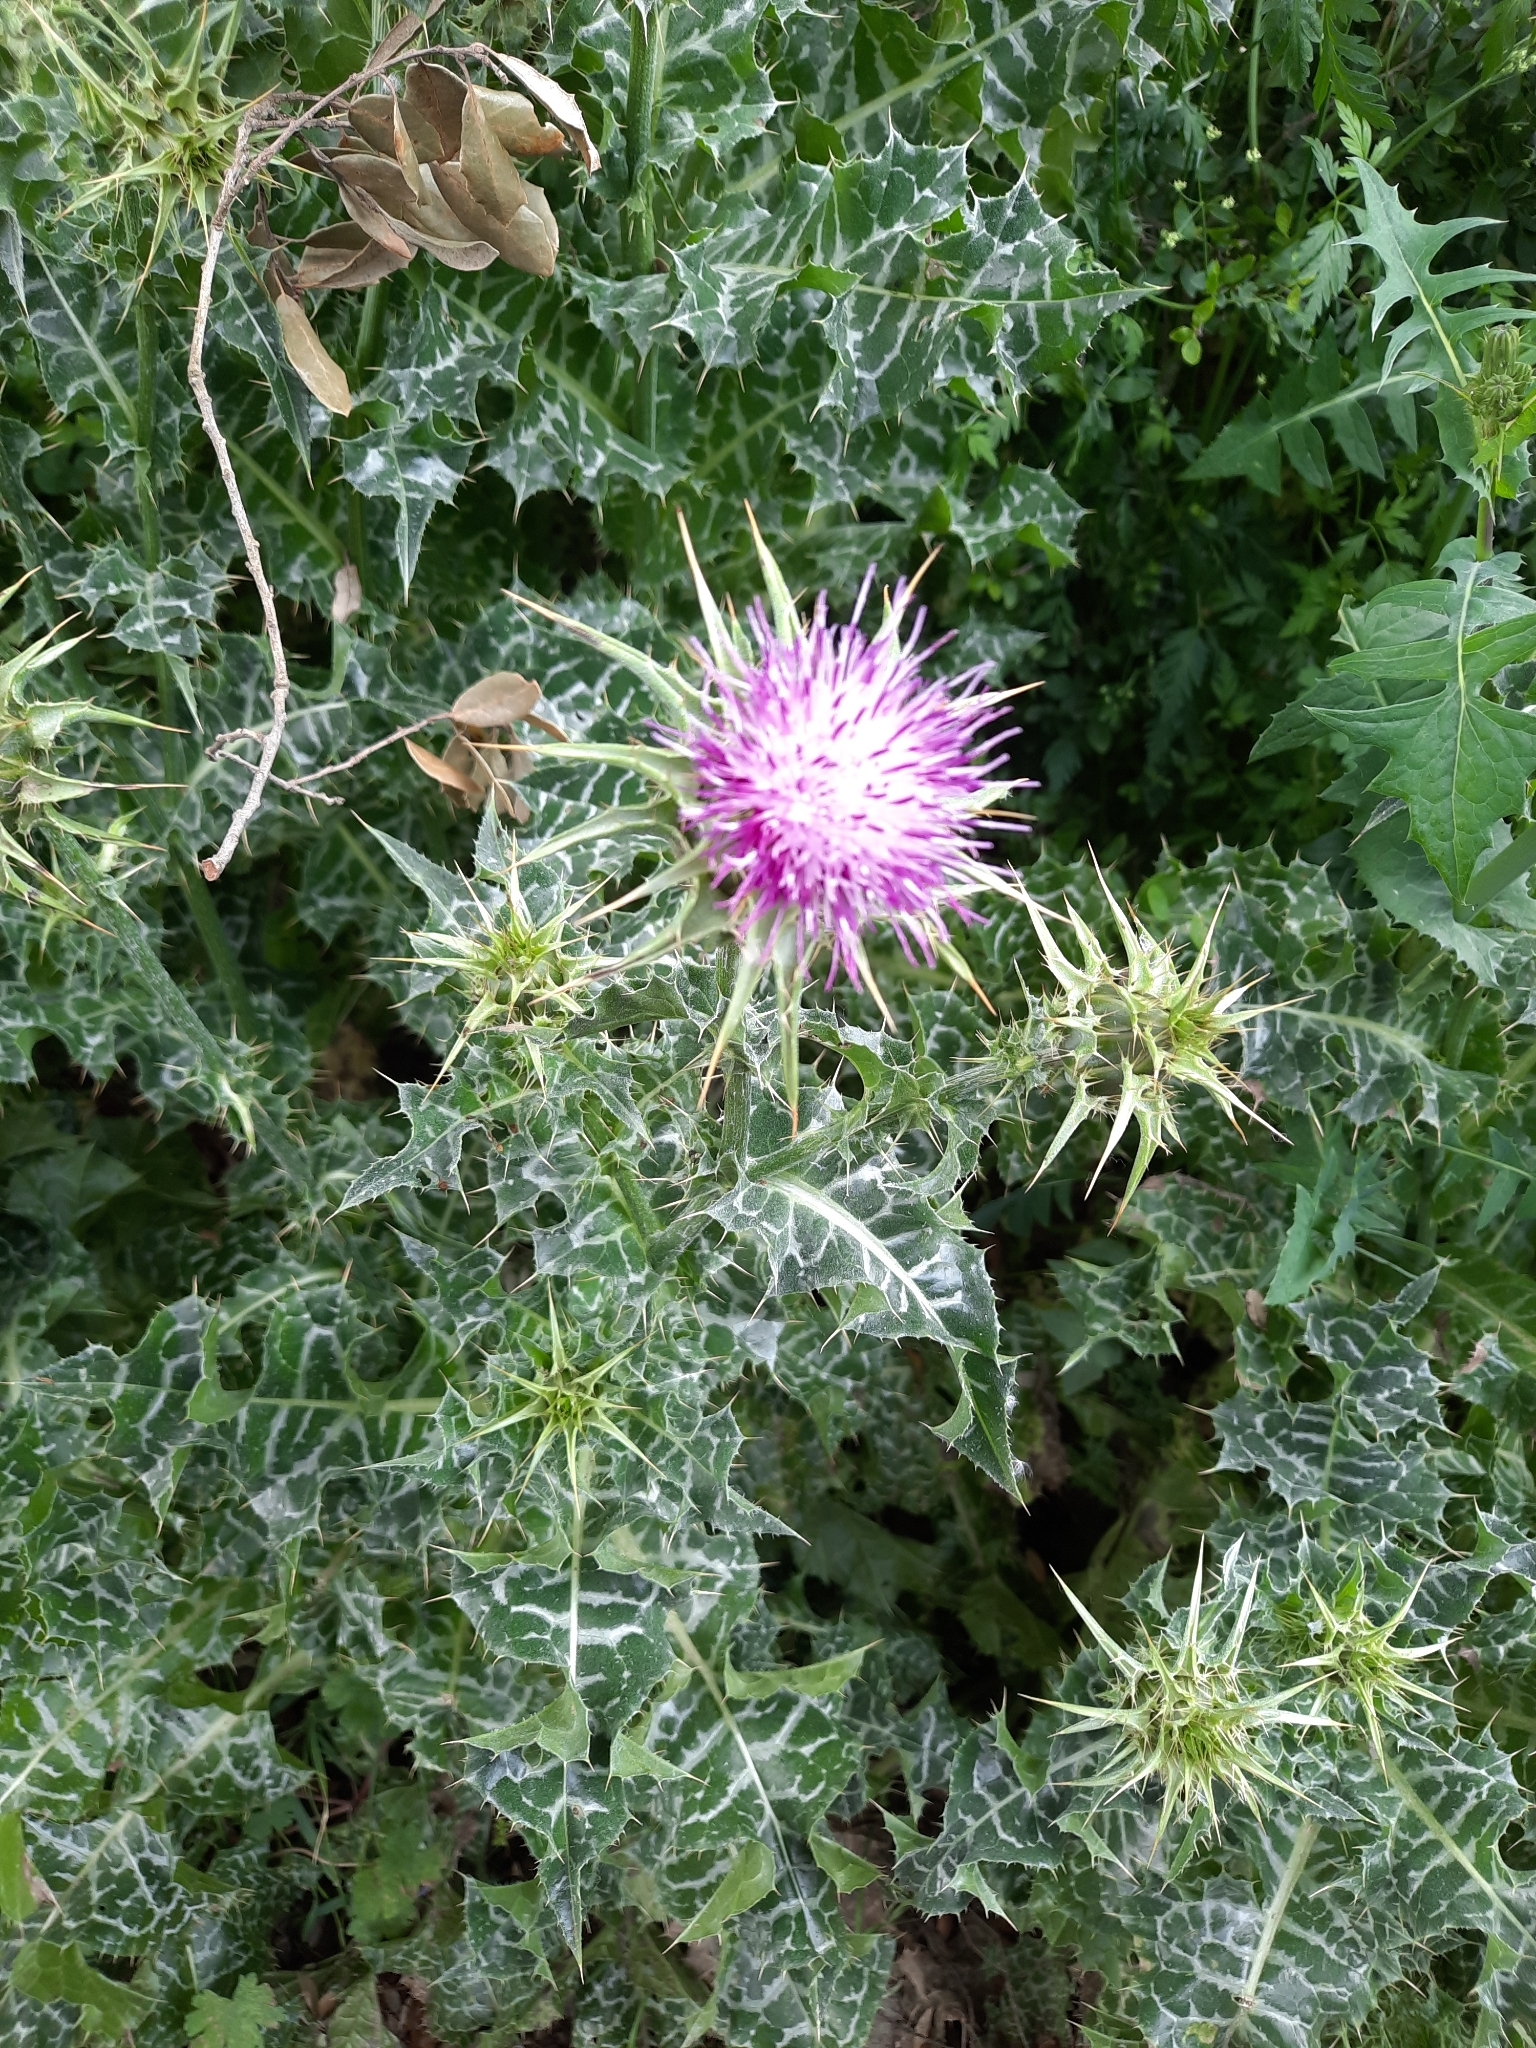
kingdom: Plantae
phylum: Tracheophyta
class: Magnoliopsida
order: Asterales
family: Asteraceae
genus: Silybum
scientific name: Silybum marianum
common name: Milk thistle
